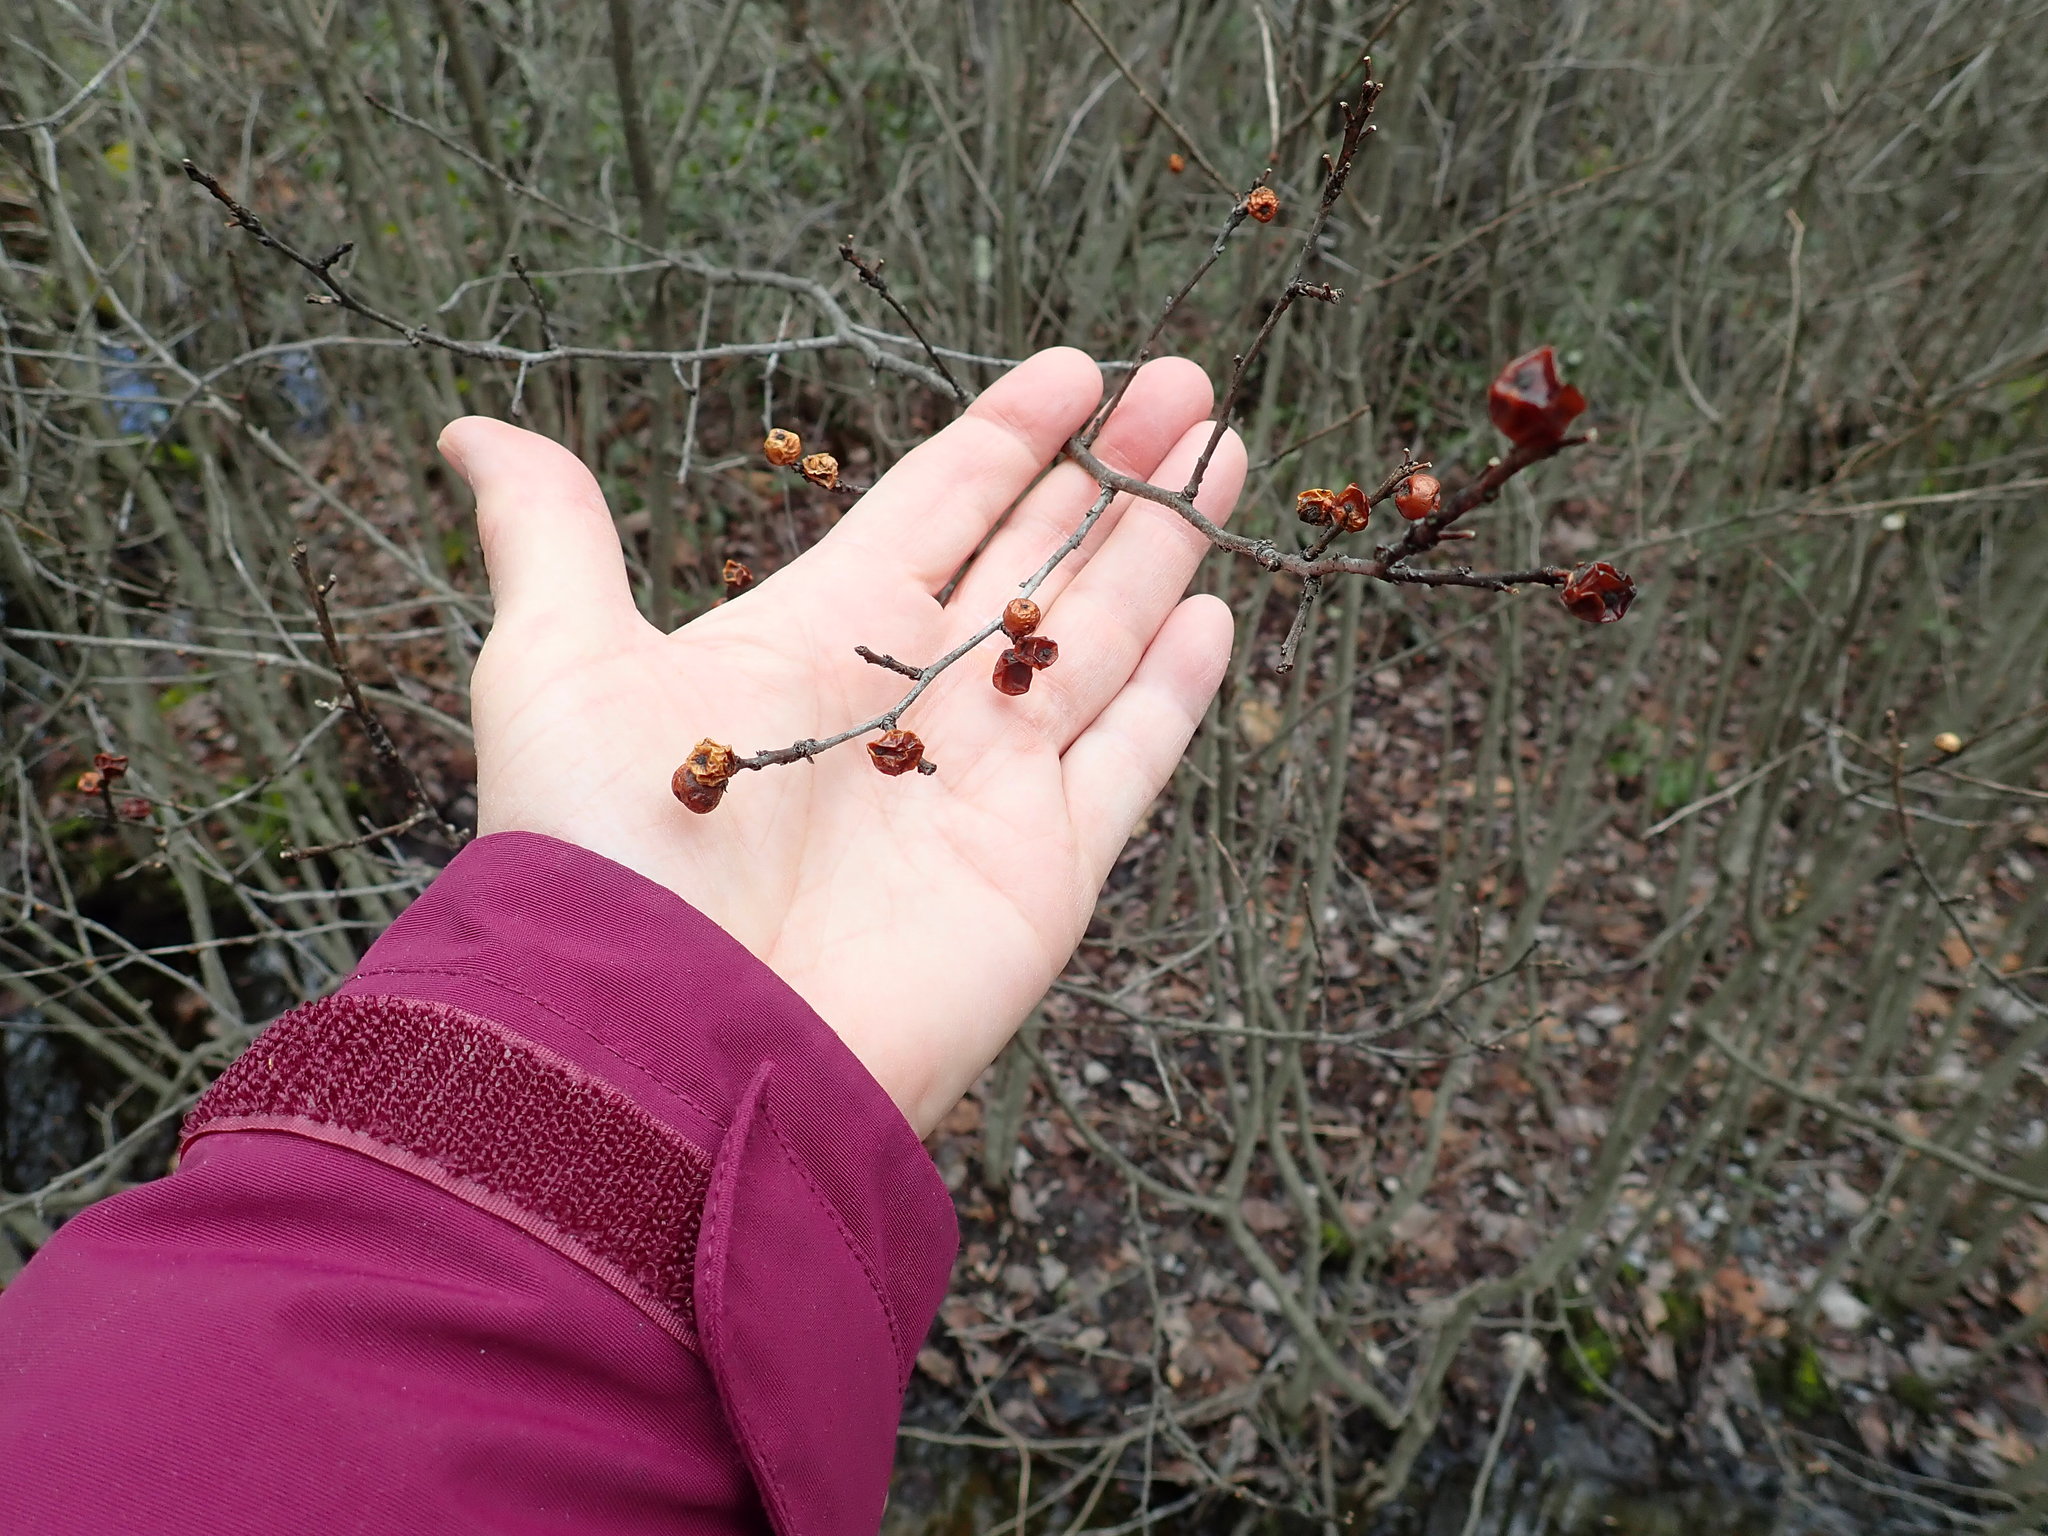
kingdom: Plantae
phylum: Tracheophyta
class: Magnoliopsida
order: Aquifoliales
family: Aquifoliaceae
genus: Ilex
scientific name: Ilex verticillata
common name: Virginia winterberry
